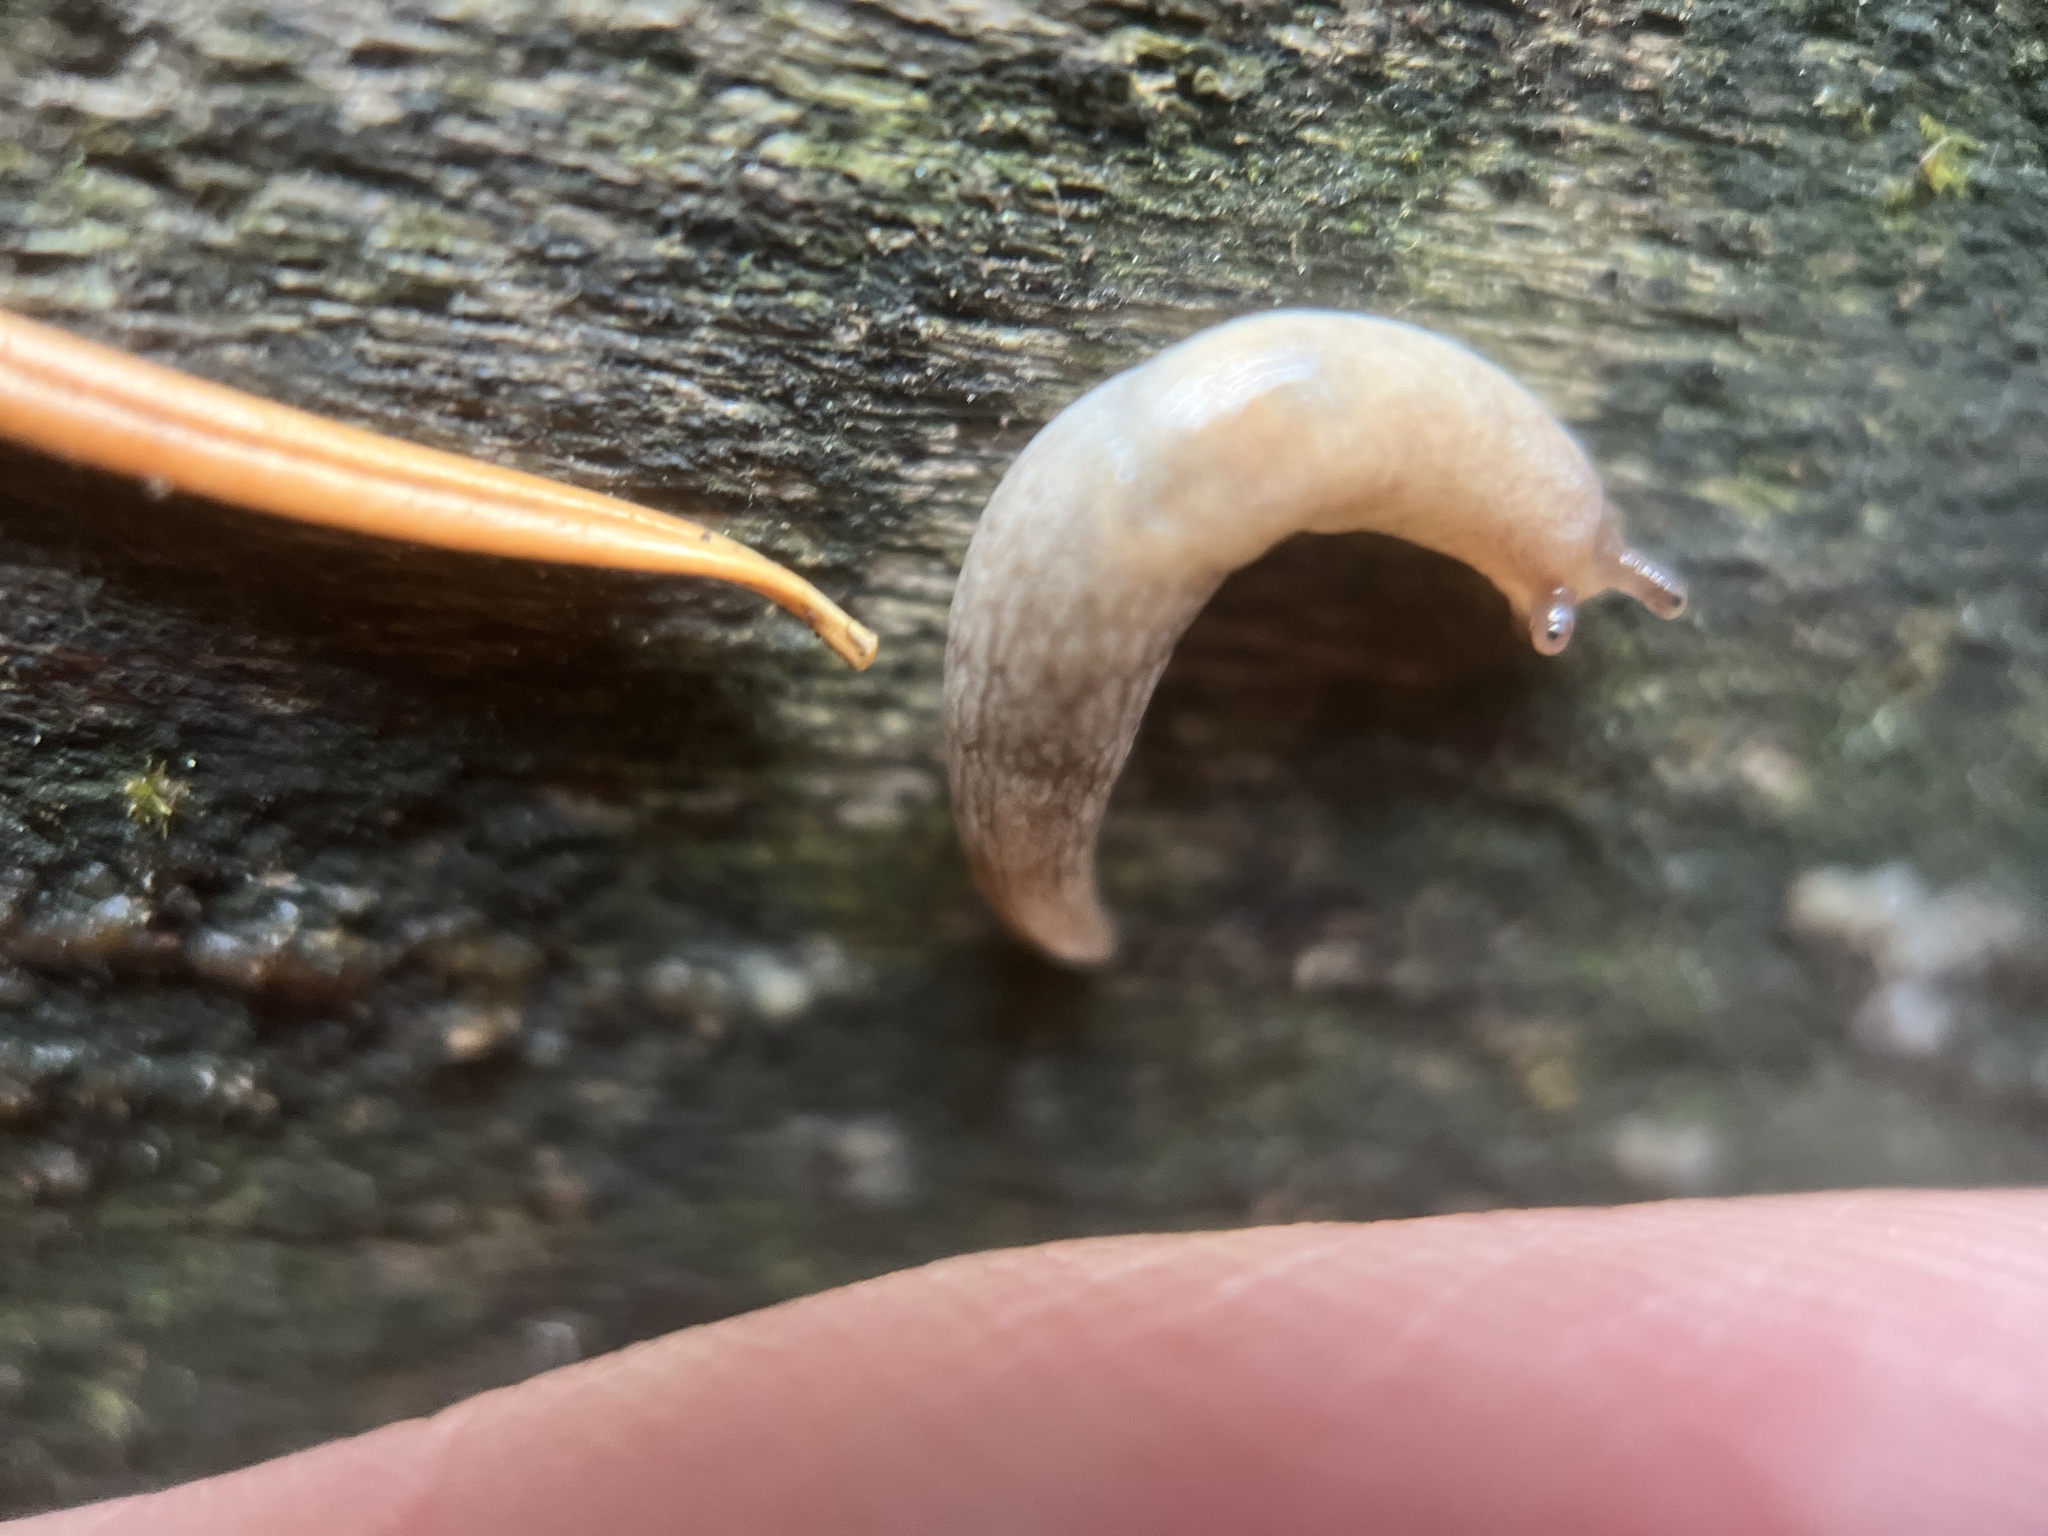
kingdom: Animalia
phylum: Mollusca
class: Gastropoda
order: Stylommatophora
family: Agriolimacidae
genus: Deroceras
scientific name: Deroceras reticulatum
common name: Gray field slug
